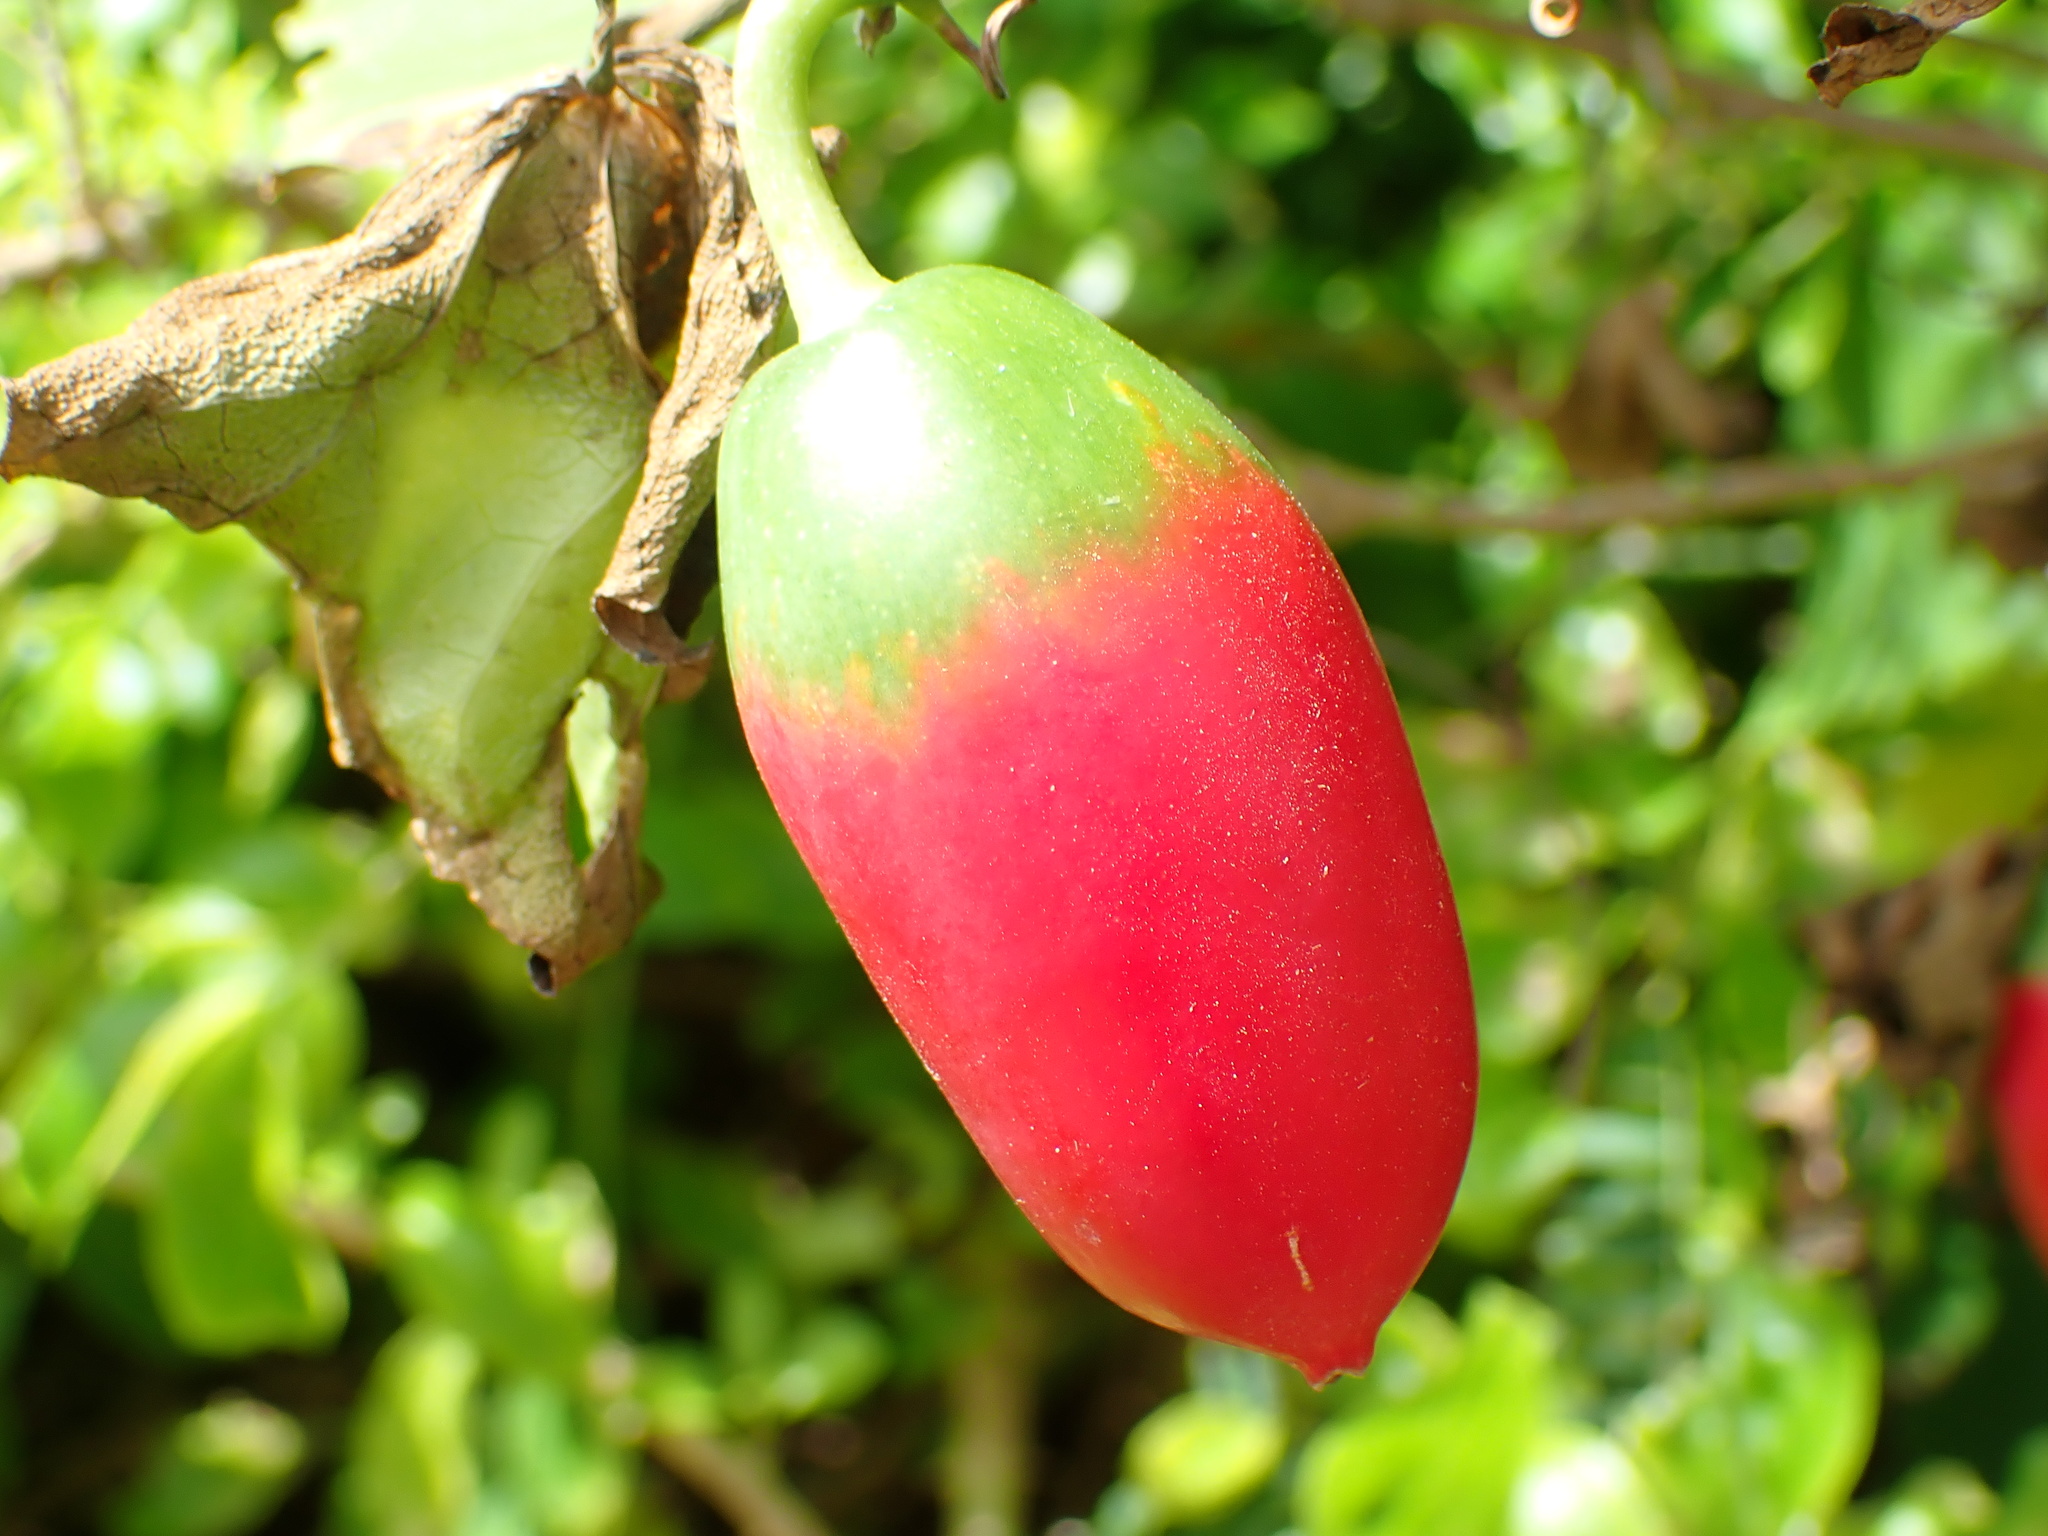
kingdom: Plantae
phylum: Tracheophyta
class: Magnoliopsida
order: Cucurbitales
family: Cucurbitaceae
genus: Coccinia
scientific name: Coccinia grandis
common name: Ivy gourd
